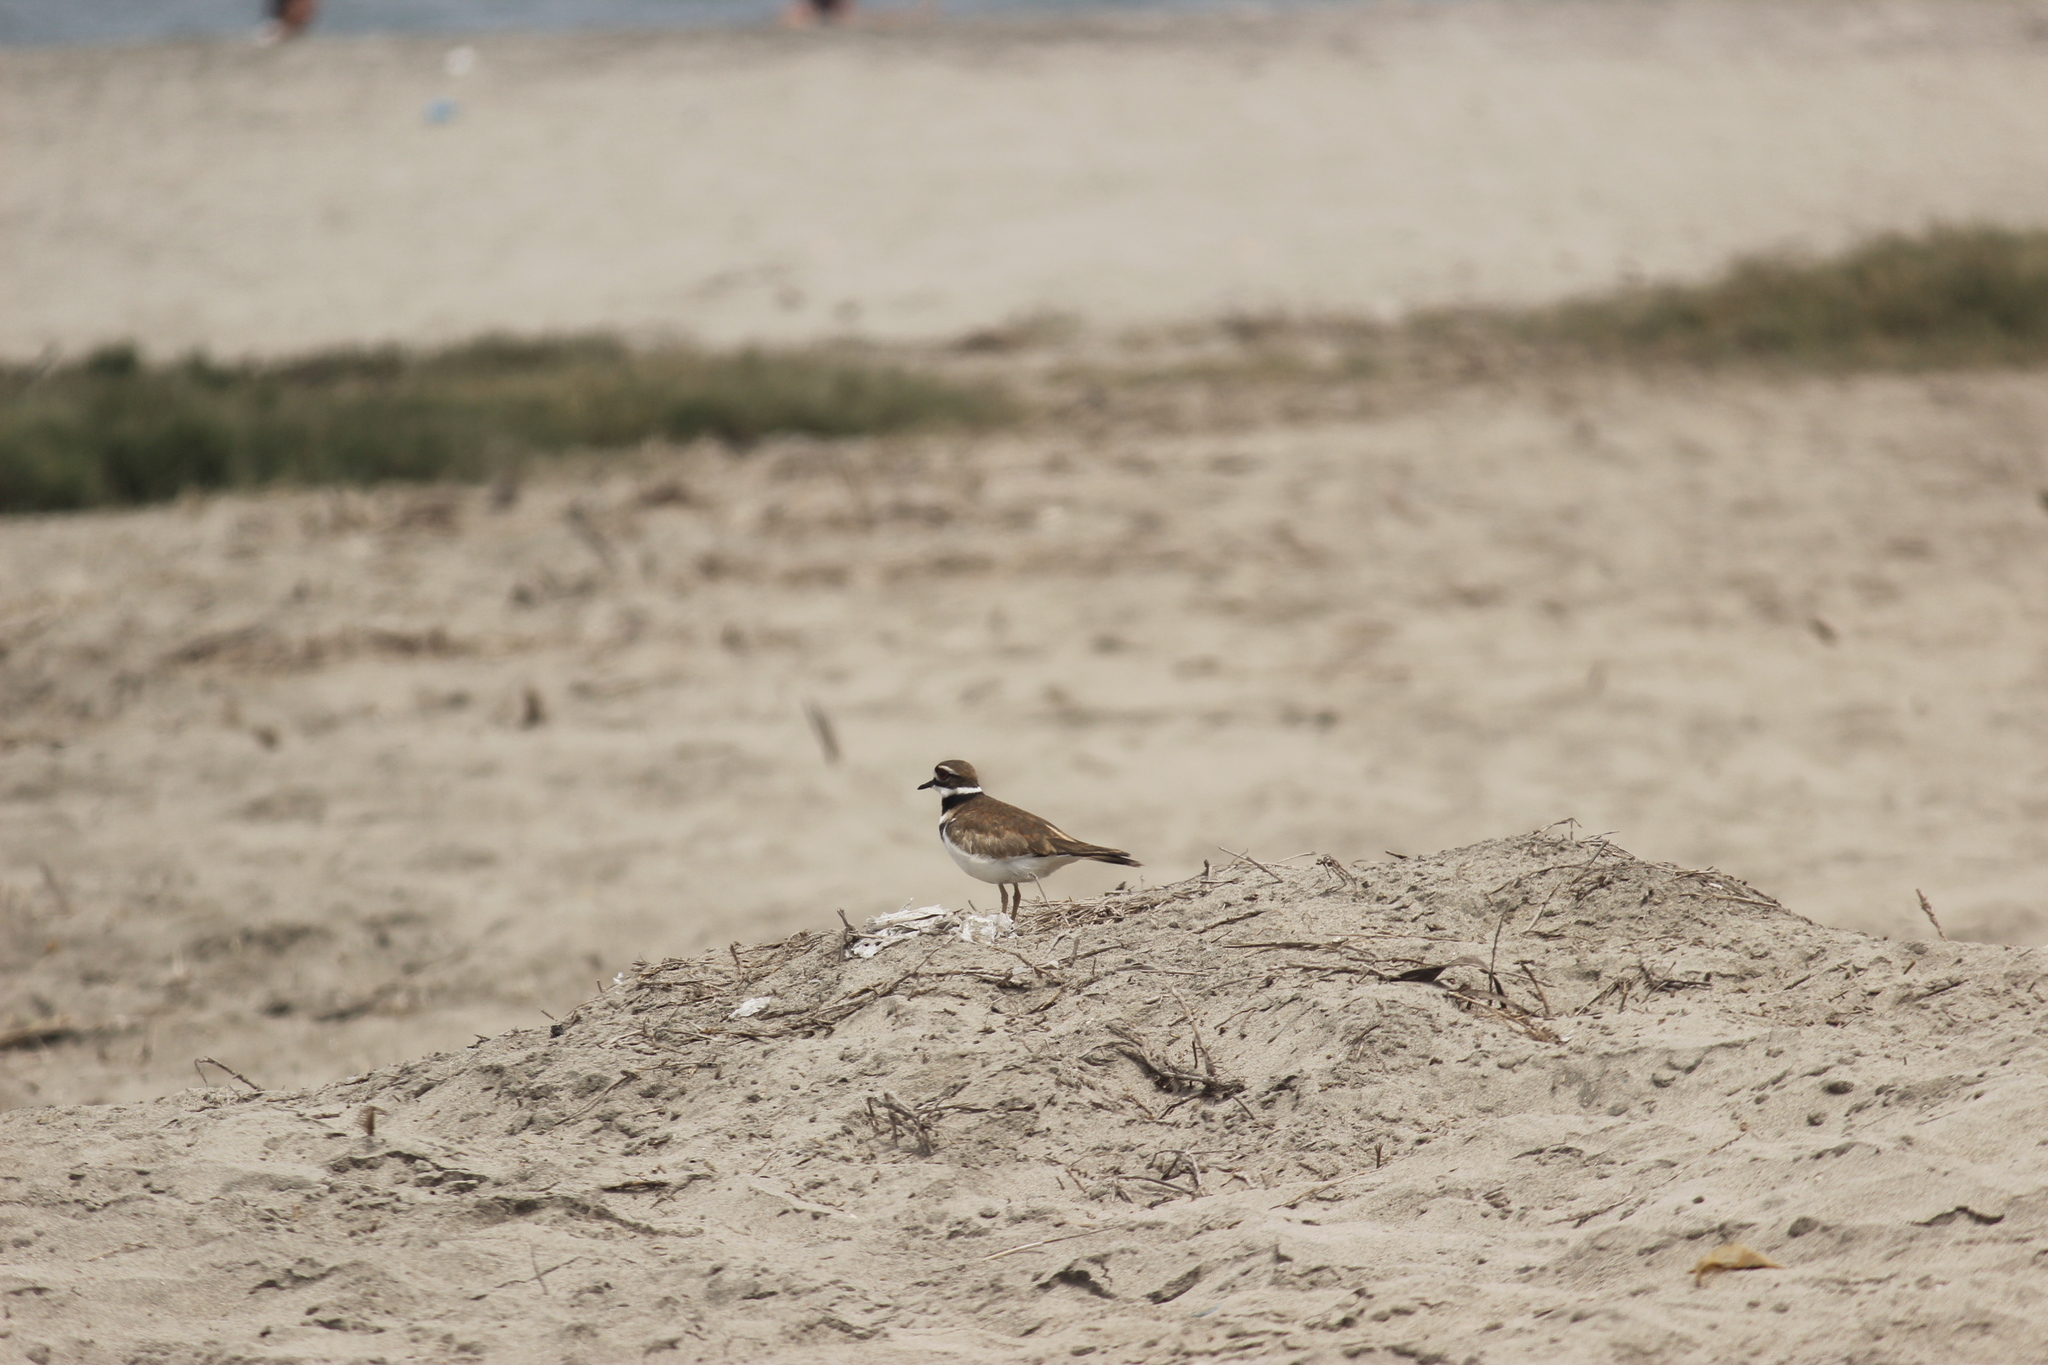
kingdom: Animalia
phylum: Chordata
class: Aves
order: Charadriiformes
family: Charadriidae
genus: Charadrius
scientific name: Charadrius vociferus
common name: Killdeer
